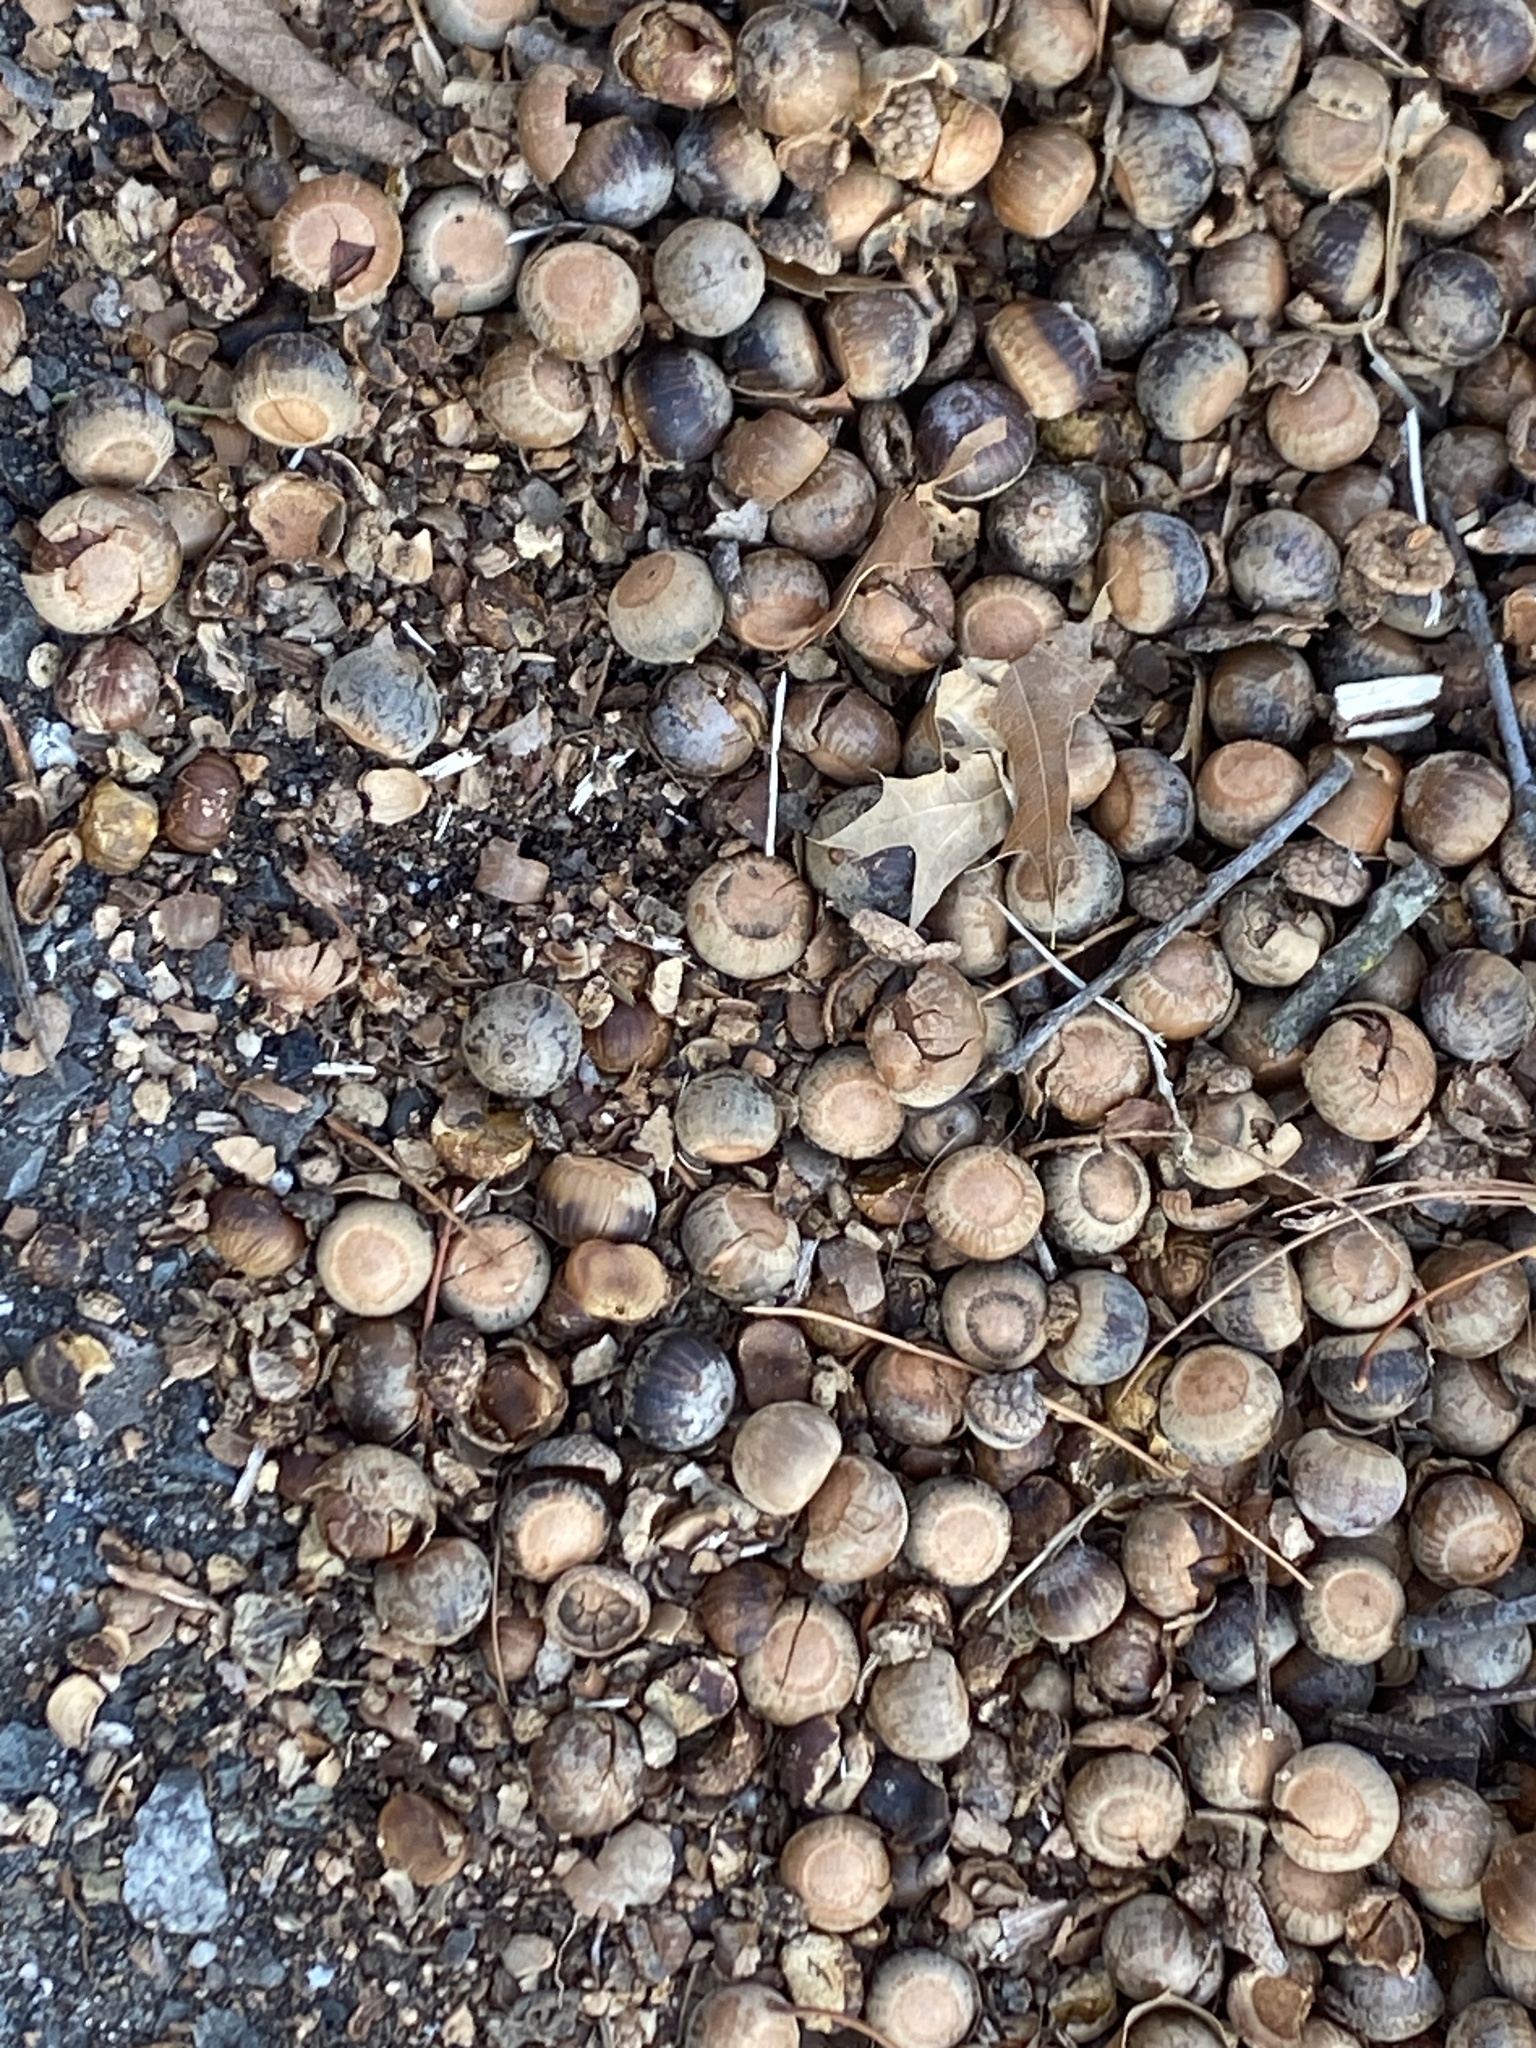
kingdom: Plantae
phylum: Tracheophyta
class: Magnoliopsida
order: Fagales
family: Fagaceae
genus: Quercus
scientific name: Quercus palustris
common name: Pin oak
